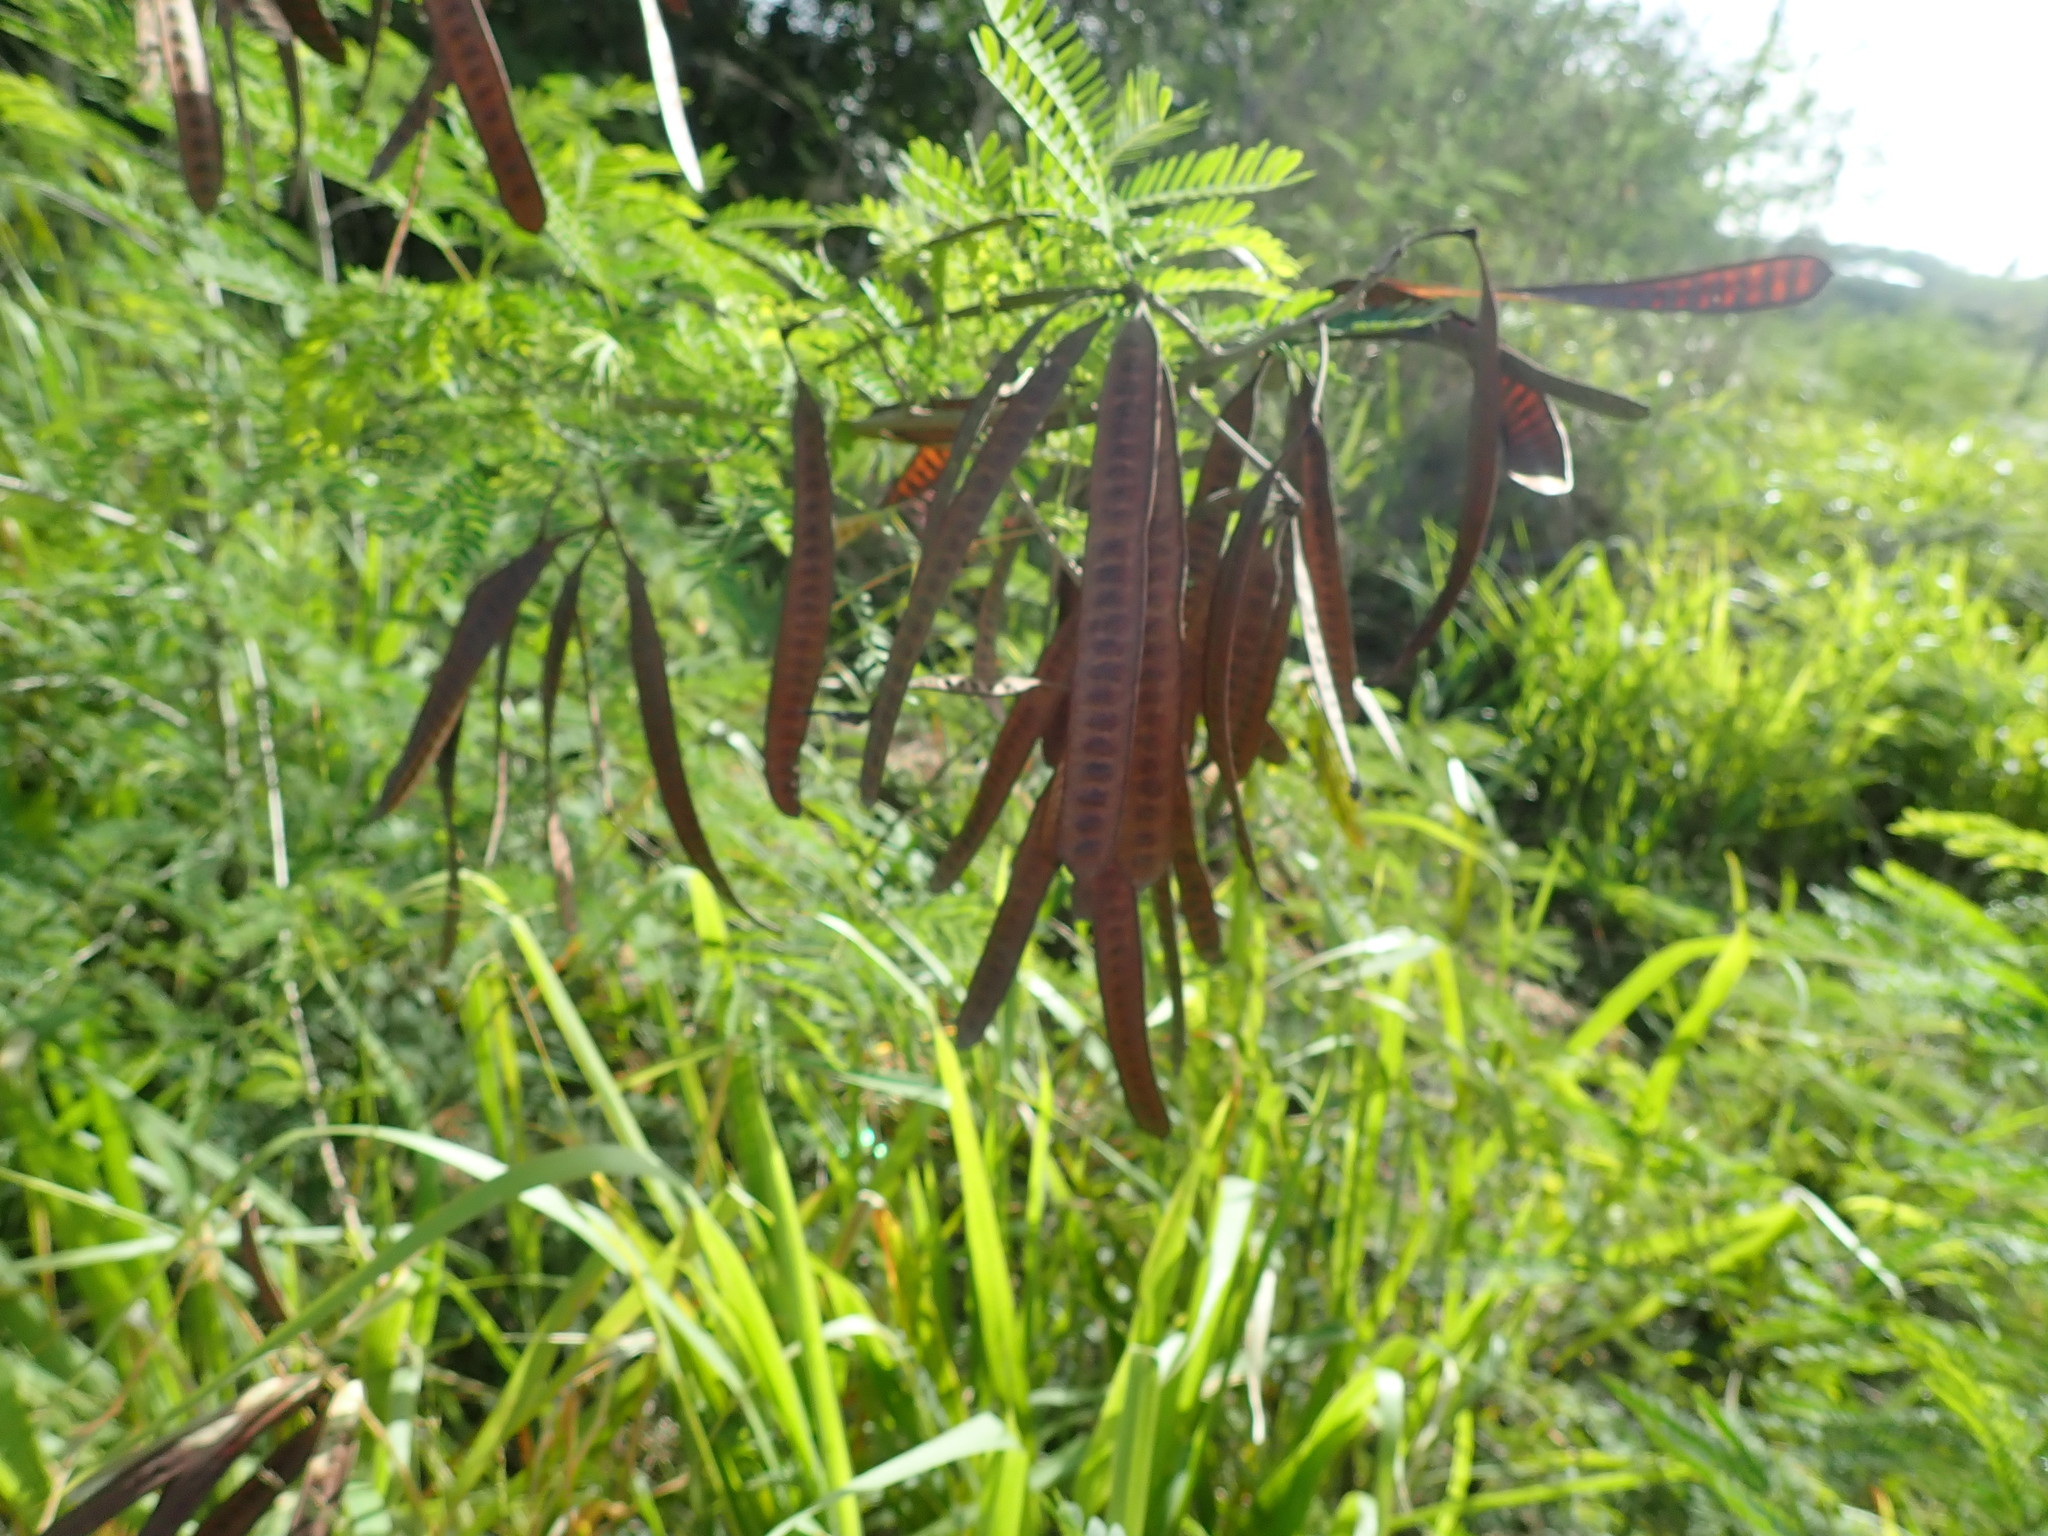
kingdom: Plantae
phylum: Tracheophyta
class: Magnoliopsida
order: Fabales
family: Fabaceae
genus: Leucaena
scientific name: Leucaena leucocephala
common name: White leadtree
